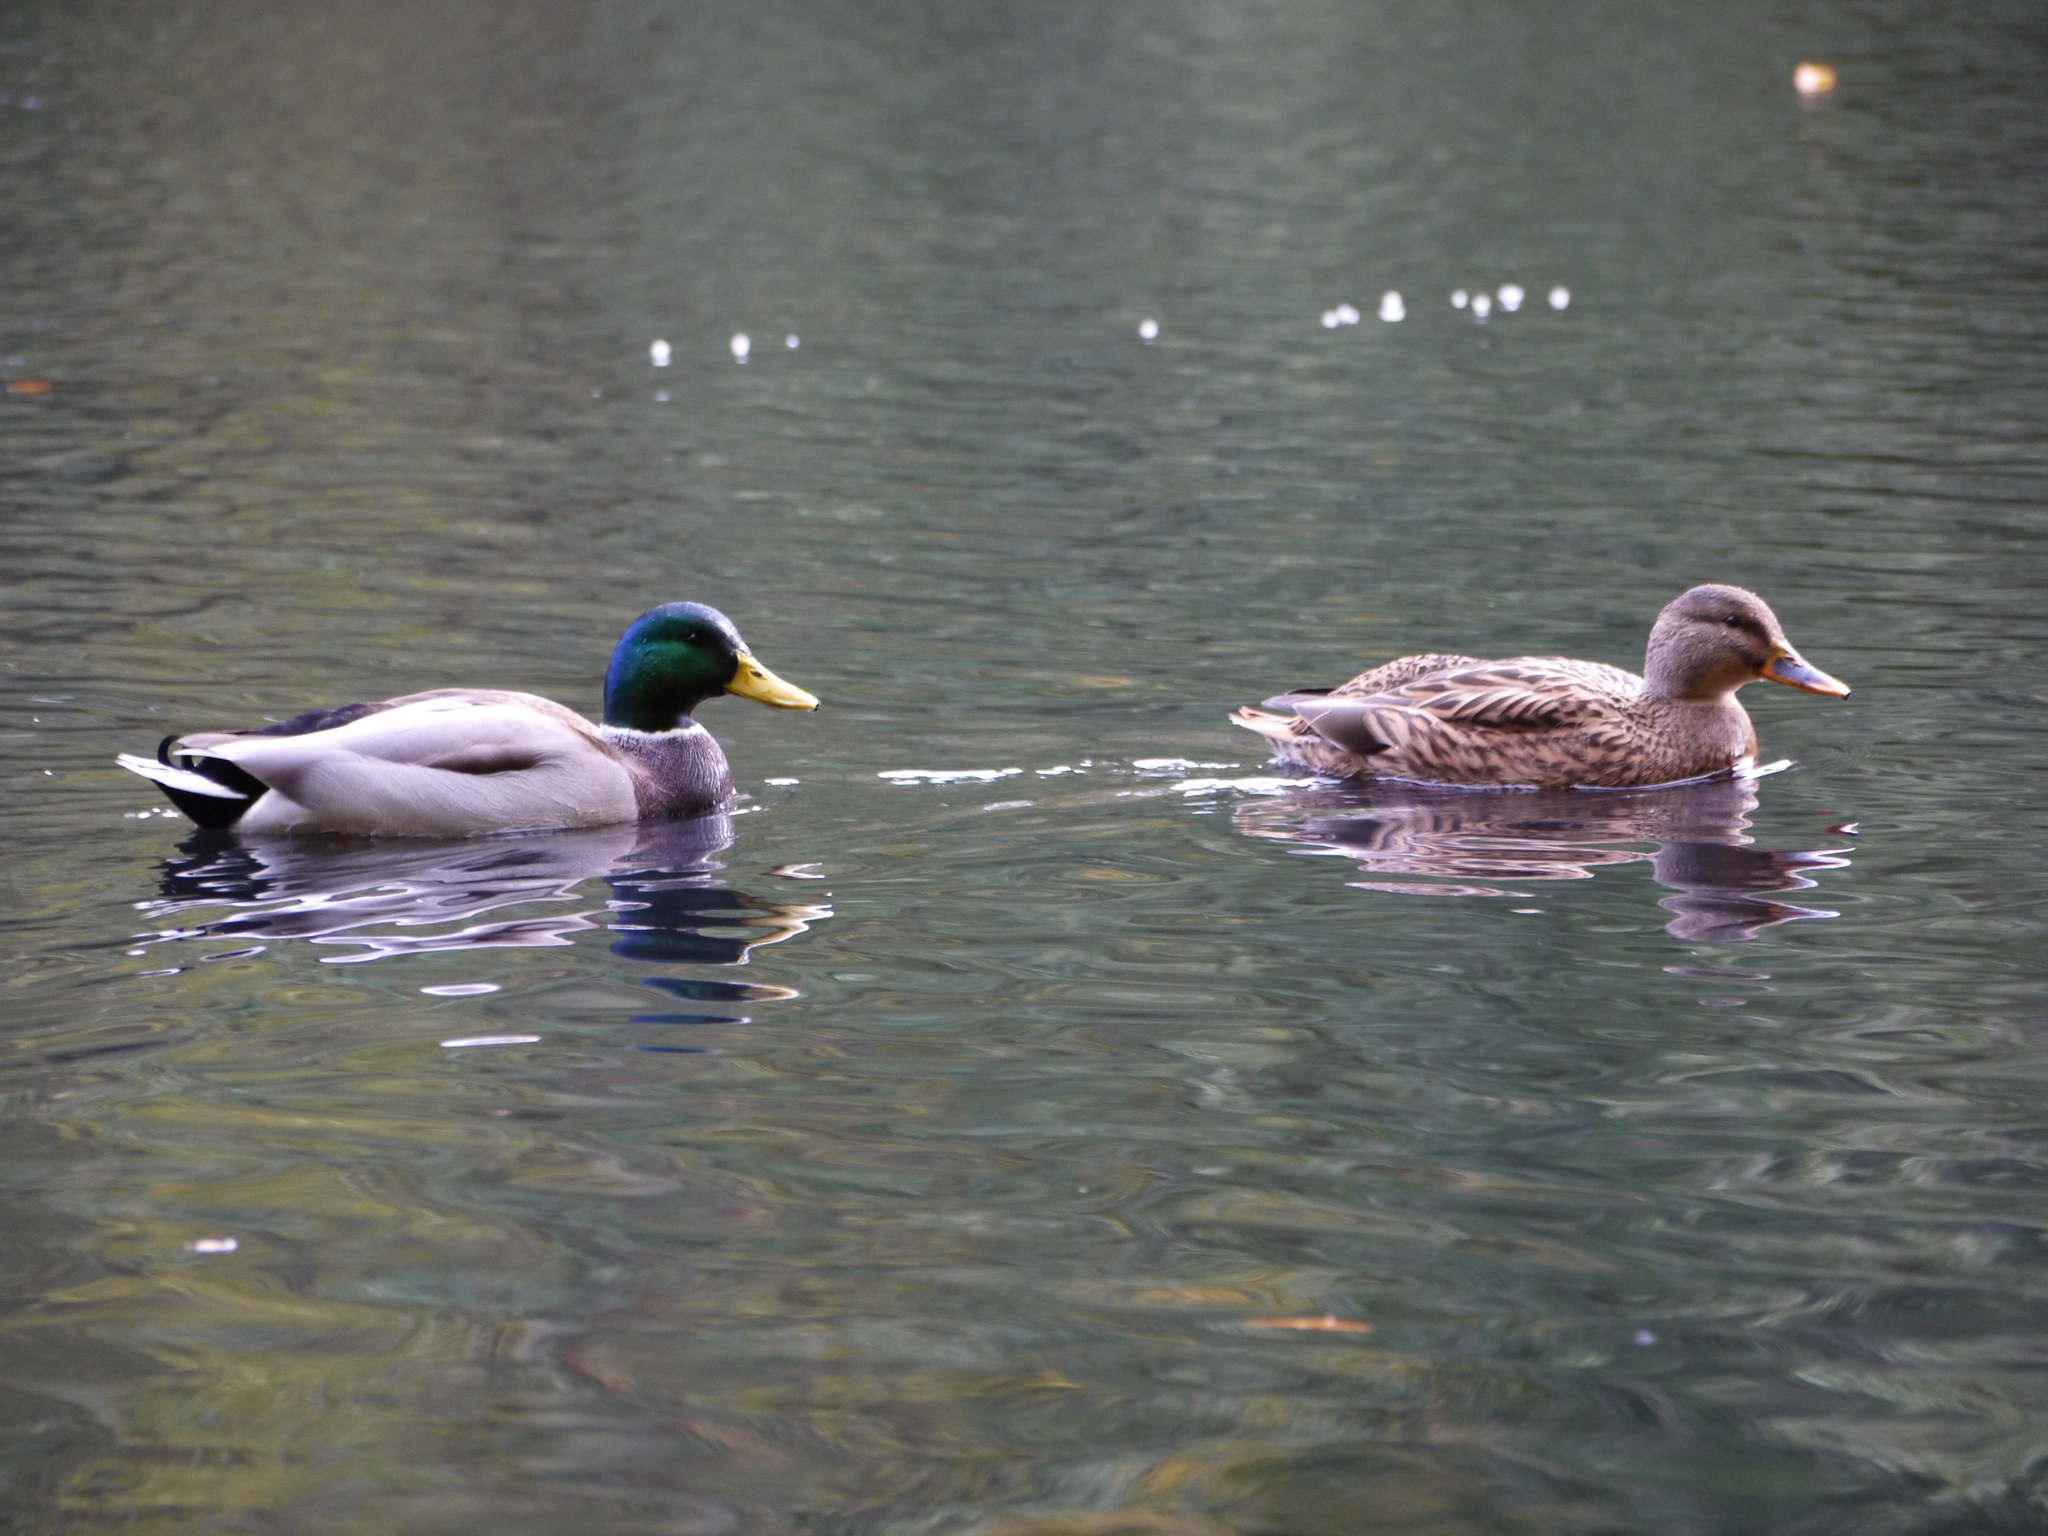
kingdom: Animalia
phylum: Chordata
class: Aves
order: Anseriformes
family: Anatidae
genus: Anas
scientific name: Anas platyrhynchos
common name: Mallard
